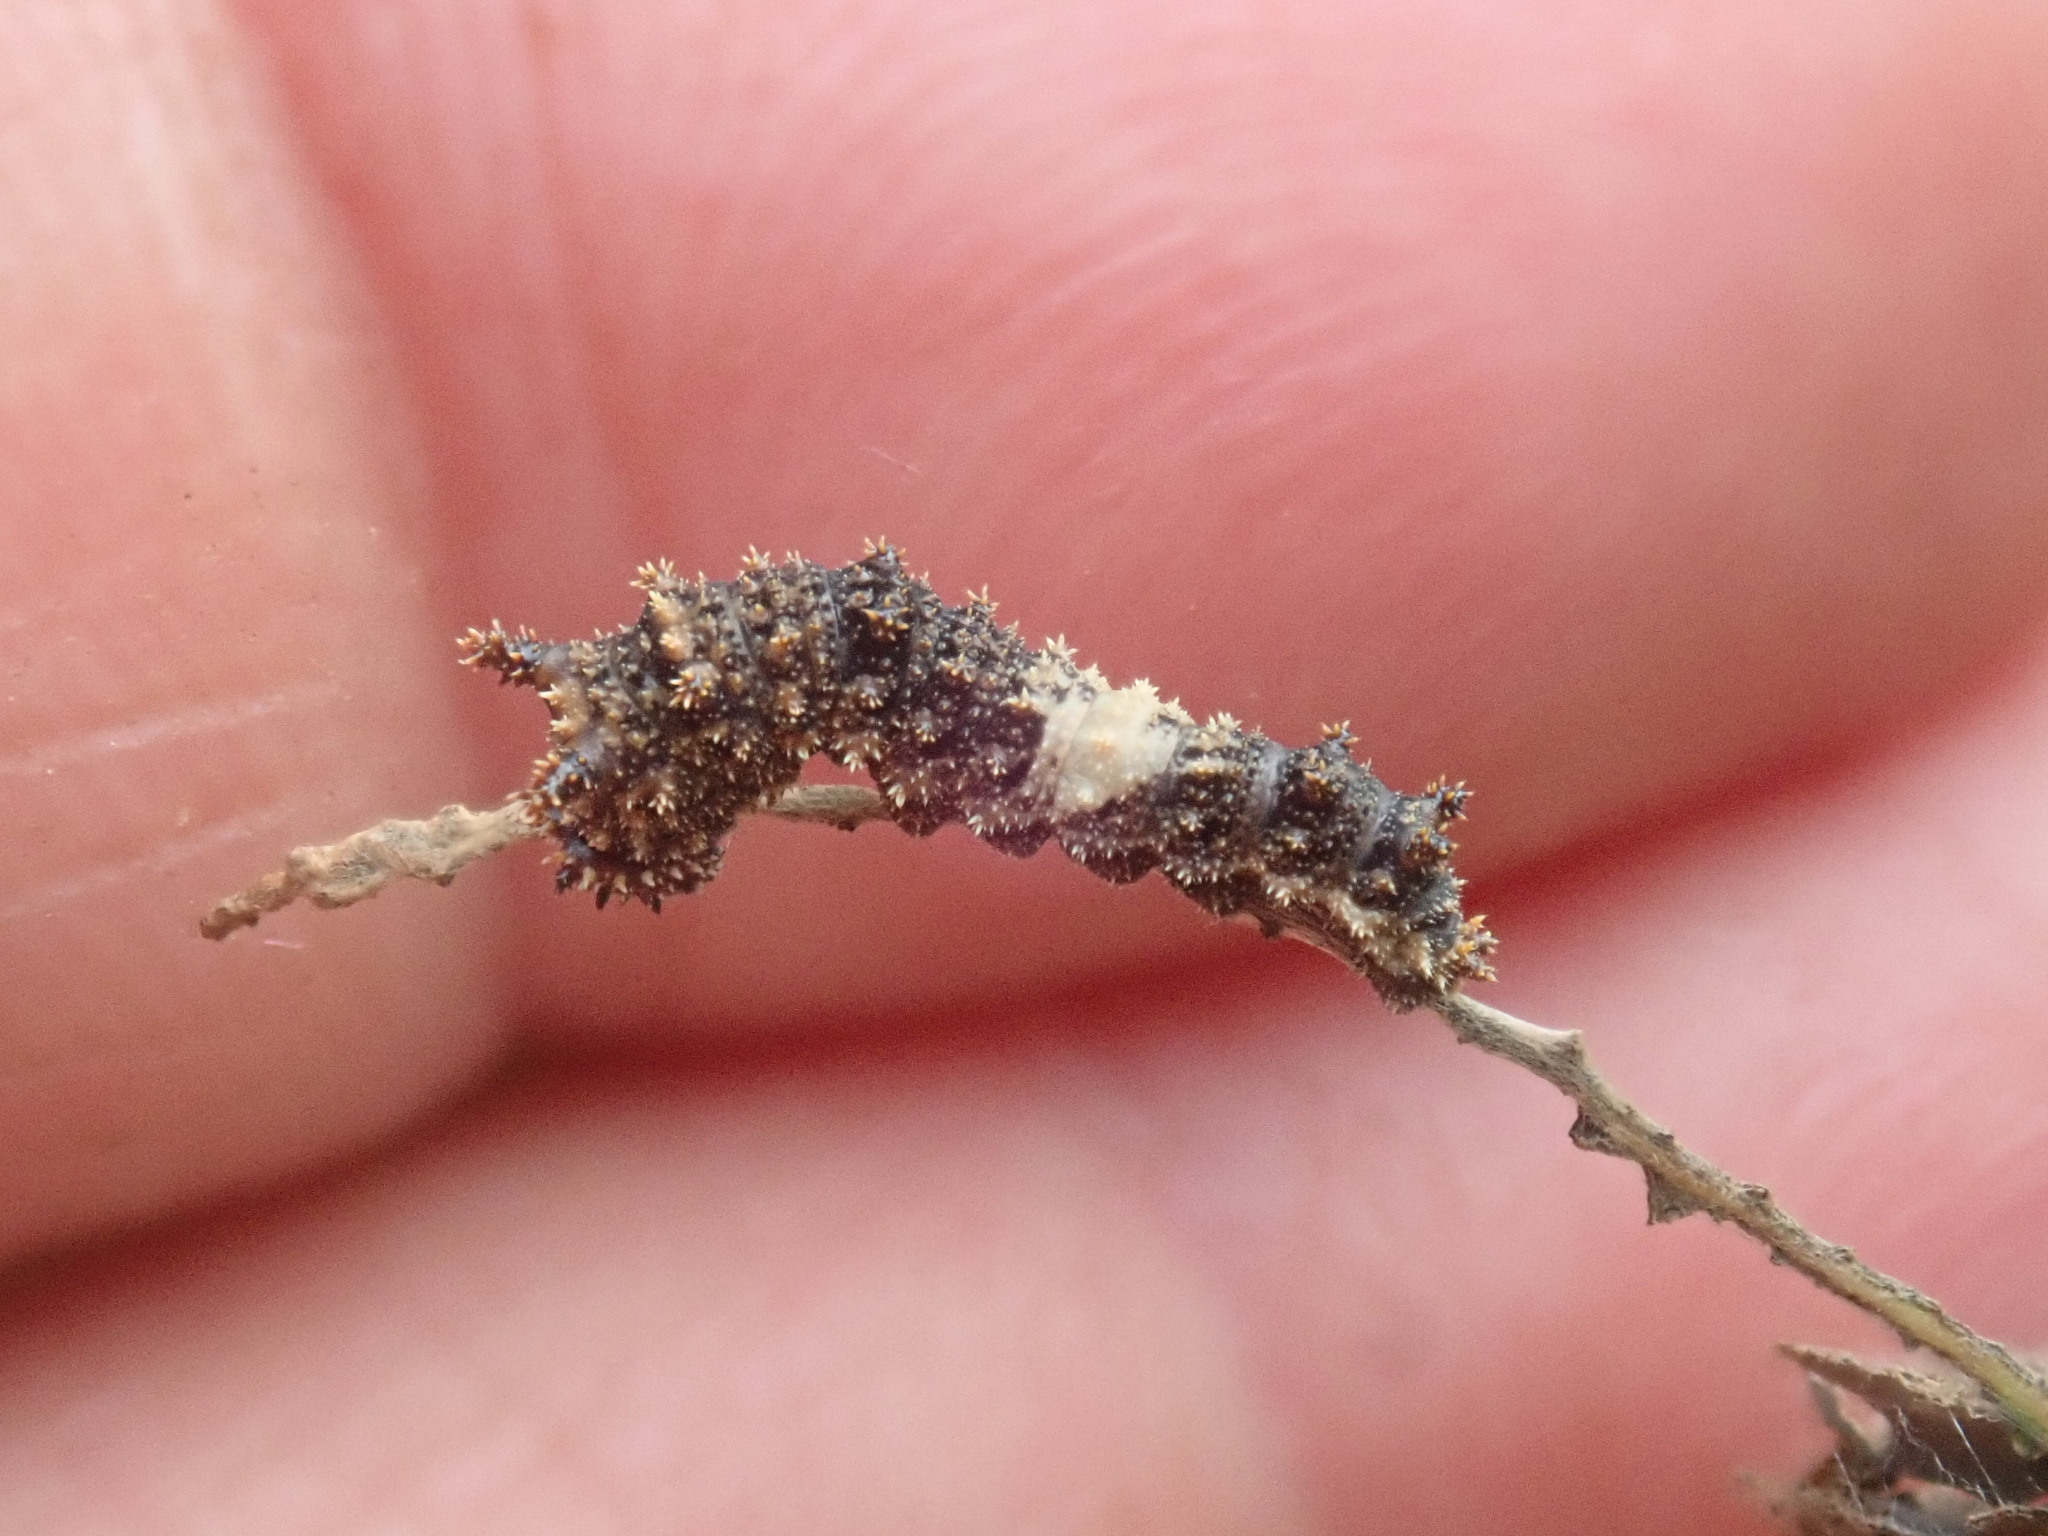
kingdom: Animalia
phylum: Arthropoda
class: Insecta
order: Lepidoptera
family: Nymphalidae
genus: Limenitis
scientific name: Limenitis archippus
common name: Viceroy
